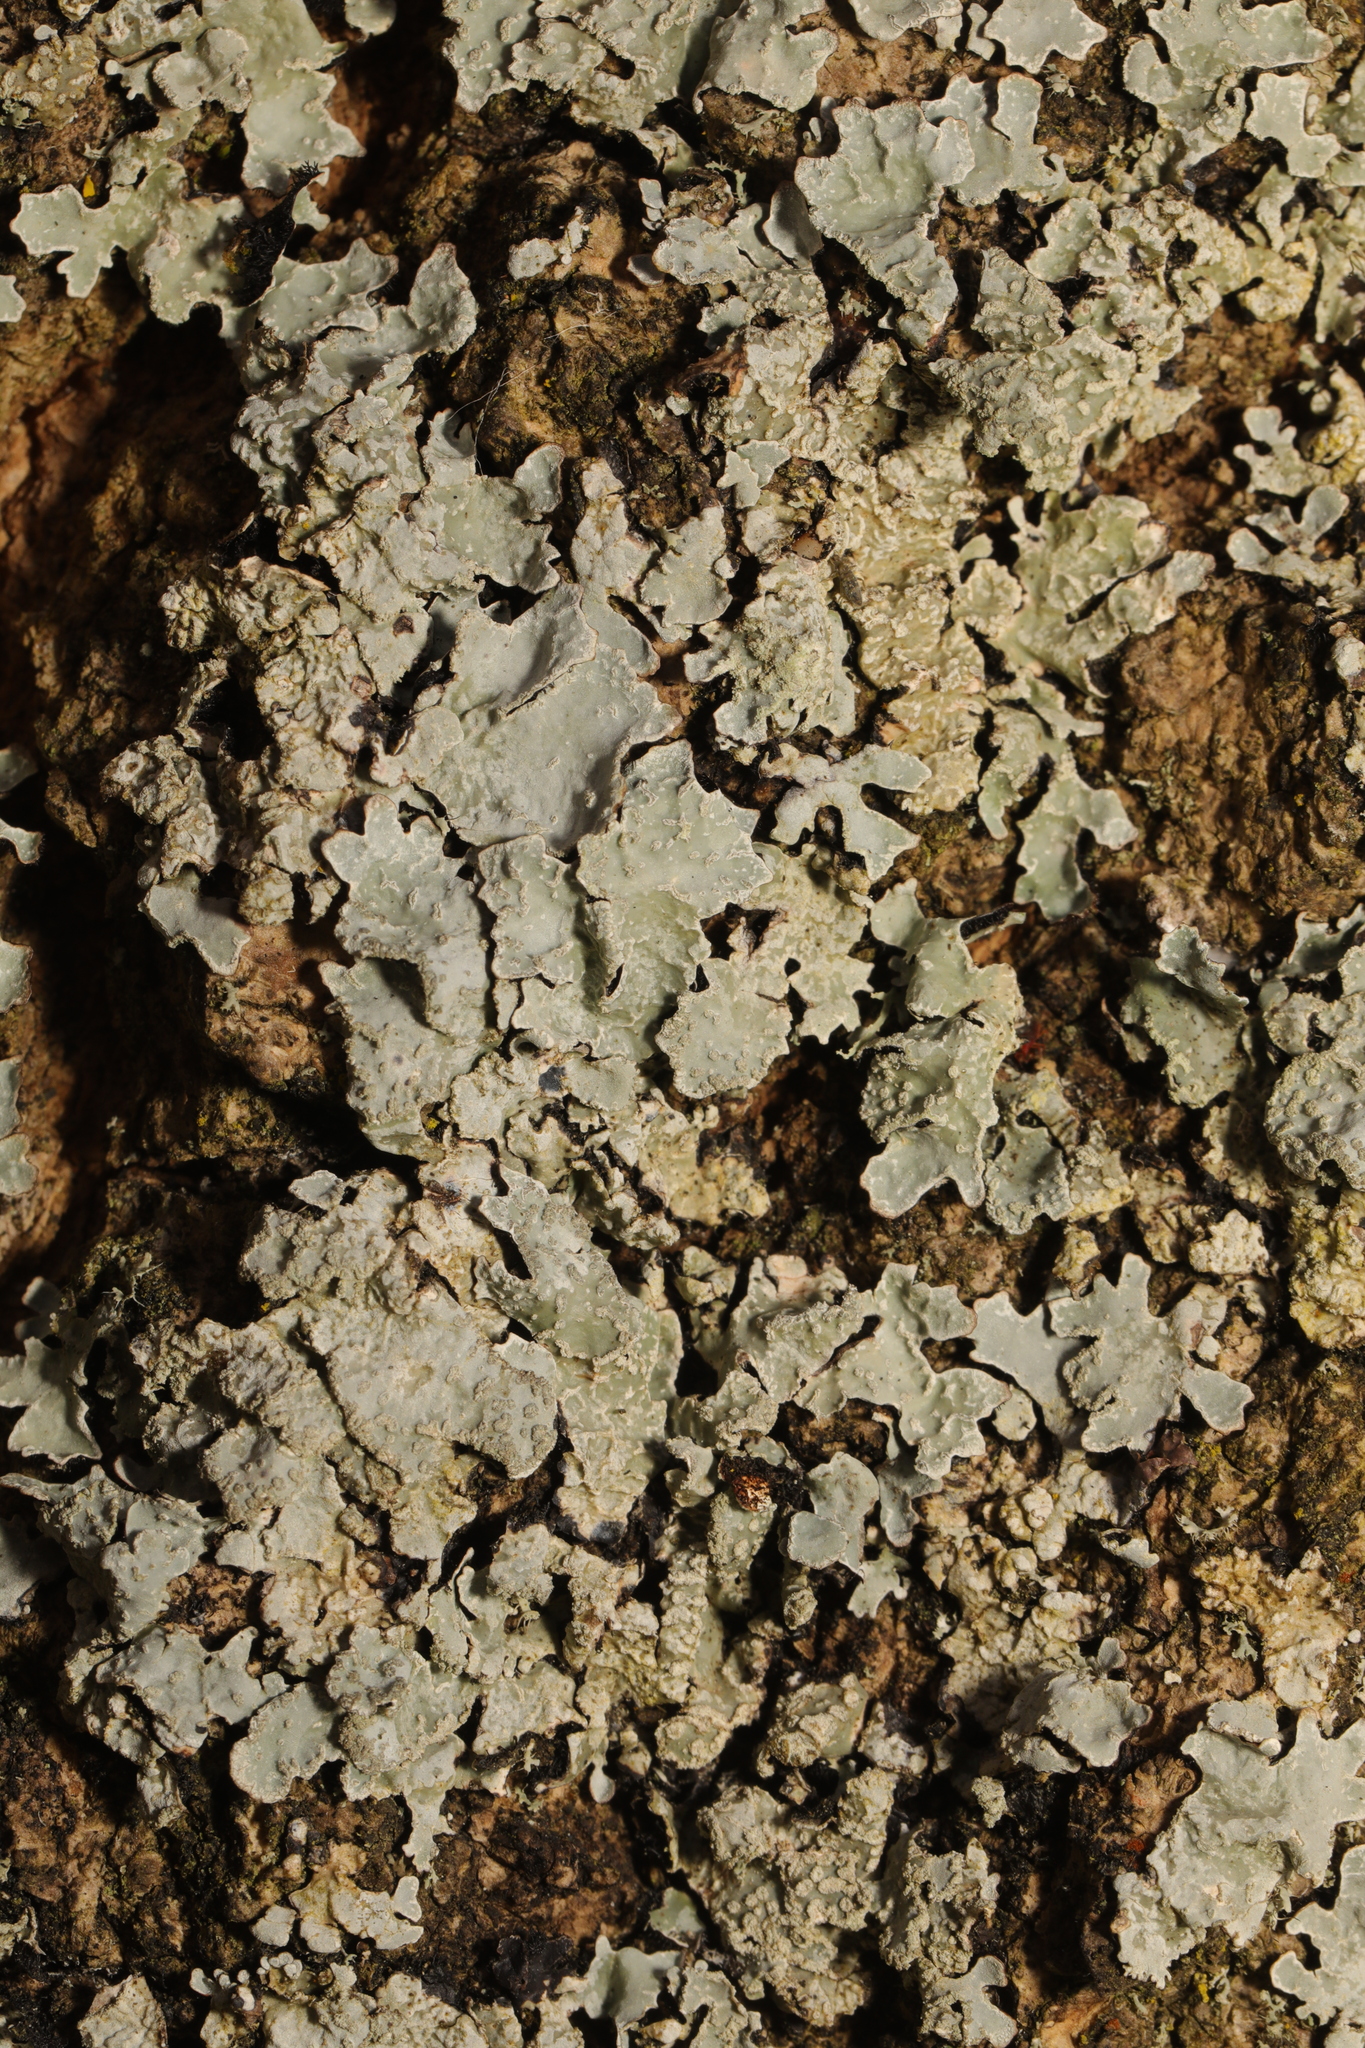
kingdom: Fungi
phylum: Ascomycota
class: Lecanoromycetes
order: Lecanorales
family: Parmeliaceae
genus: Parmelia
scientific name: Parmelia sulcata
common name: Netted shield lichen
